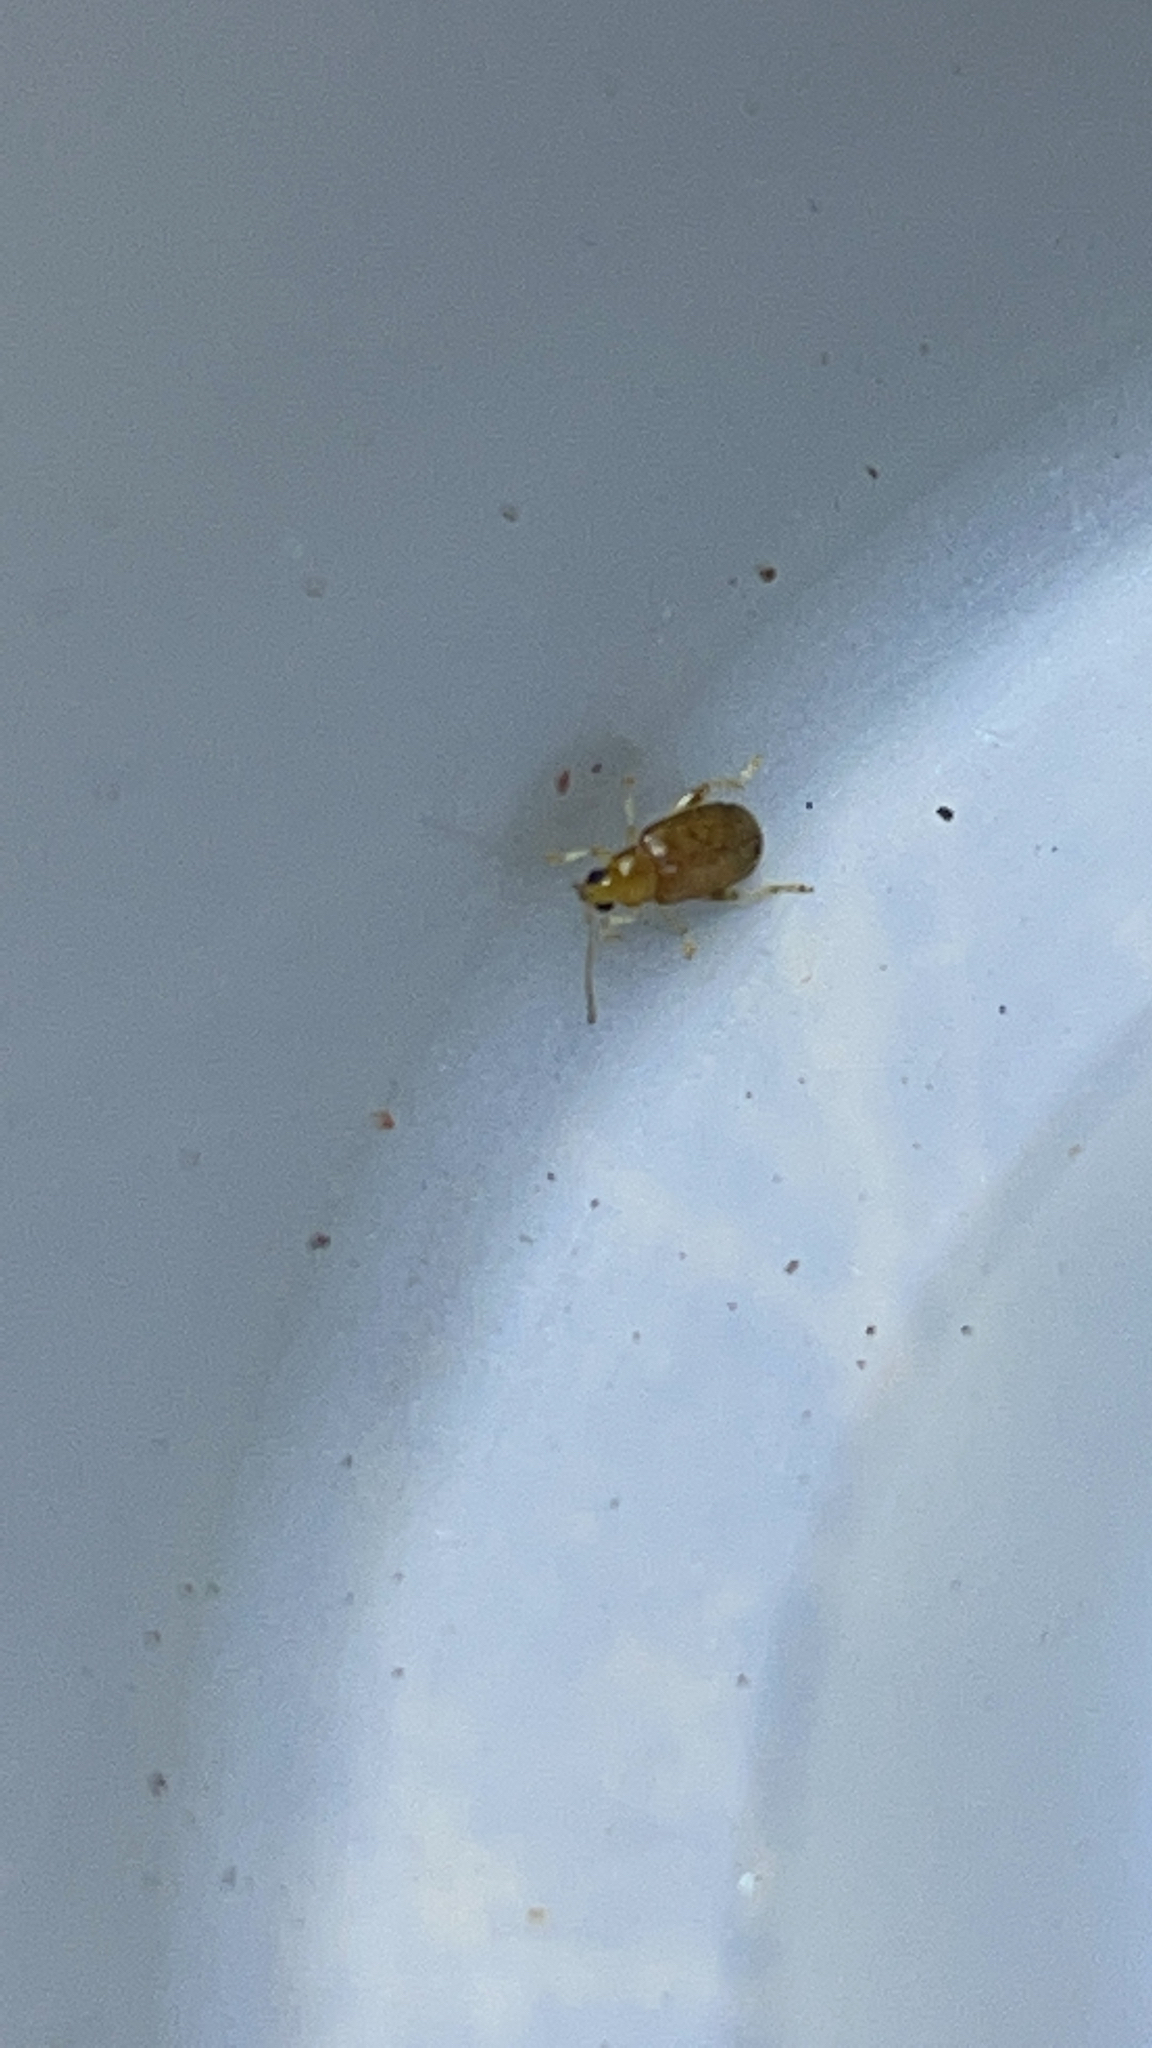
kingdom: Animalia
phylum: Arthropoda
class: Insecta
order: Coleoptera
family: Chrysomelidae
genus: Systena
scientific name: Systena marginalis
